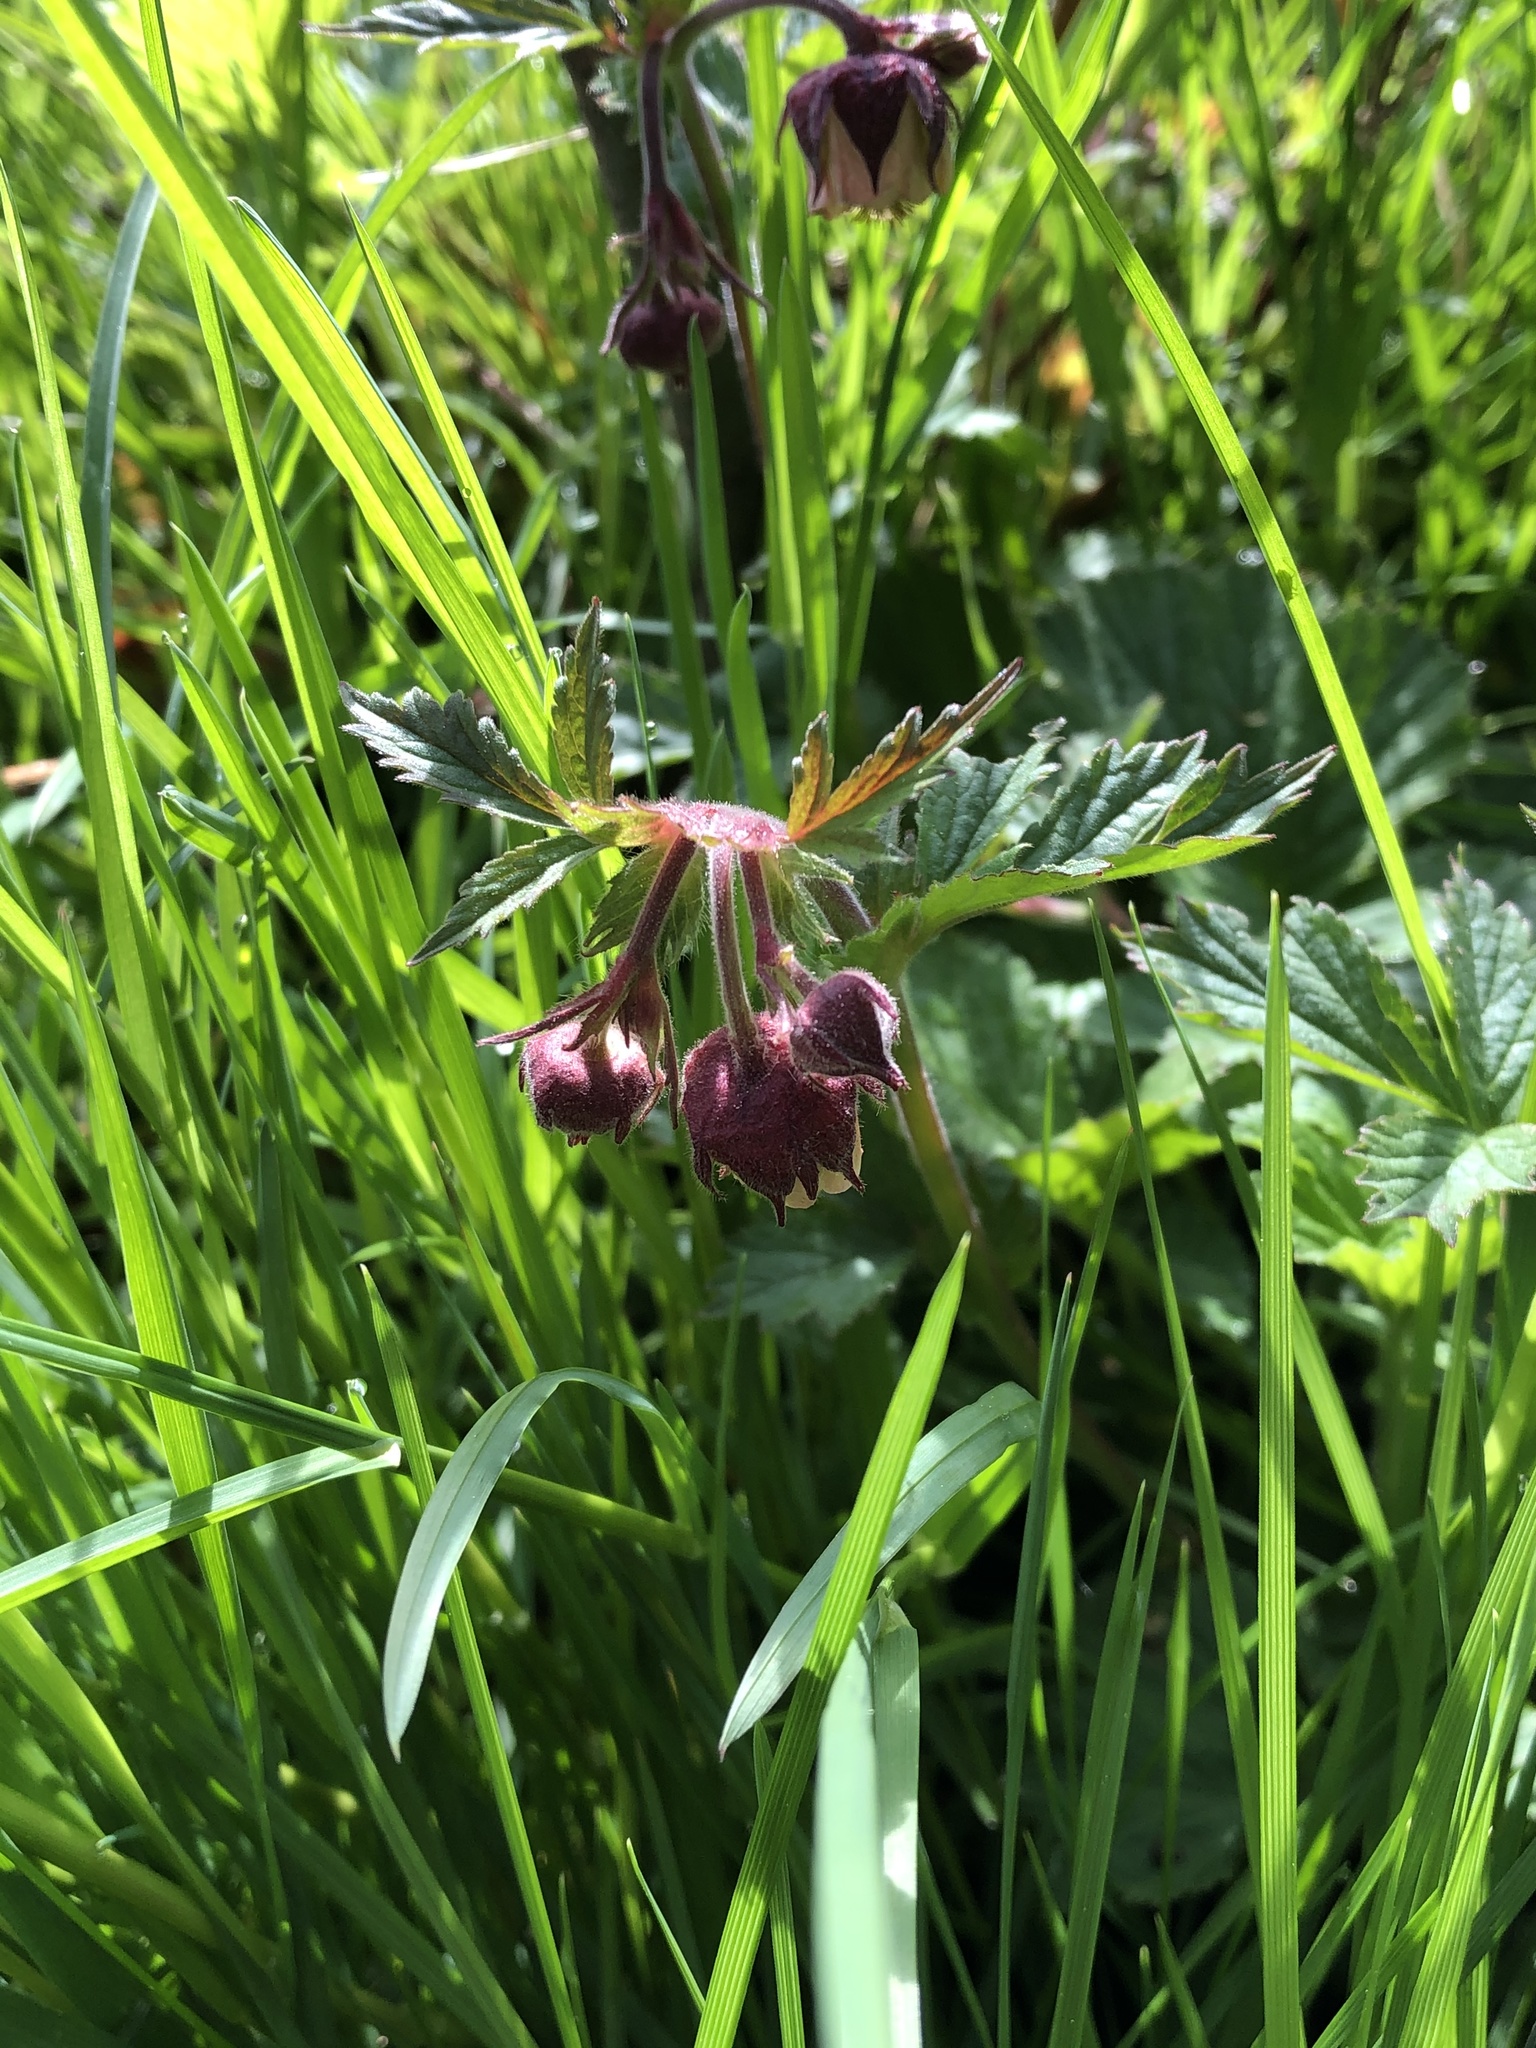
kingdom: Plantae
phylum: Tracheophyta
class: Magnoliopsida
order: Rosales
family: Rosaceae
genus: Geum
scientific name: Geum rivale
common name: Water avens
